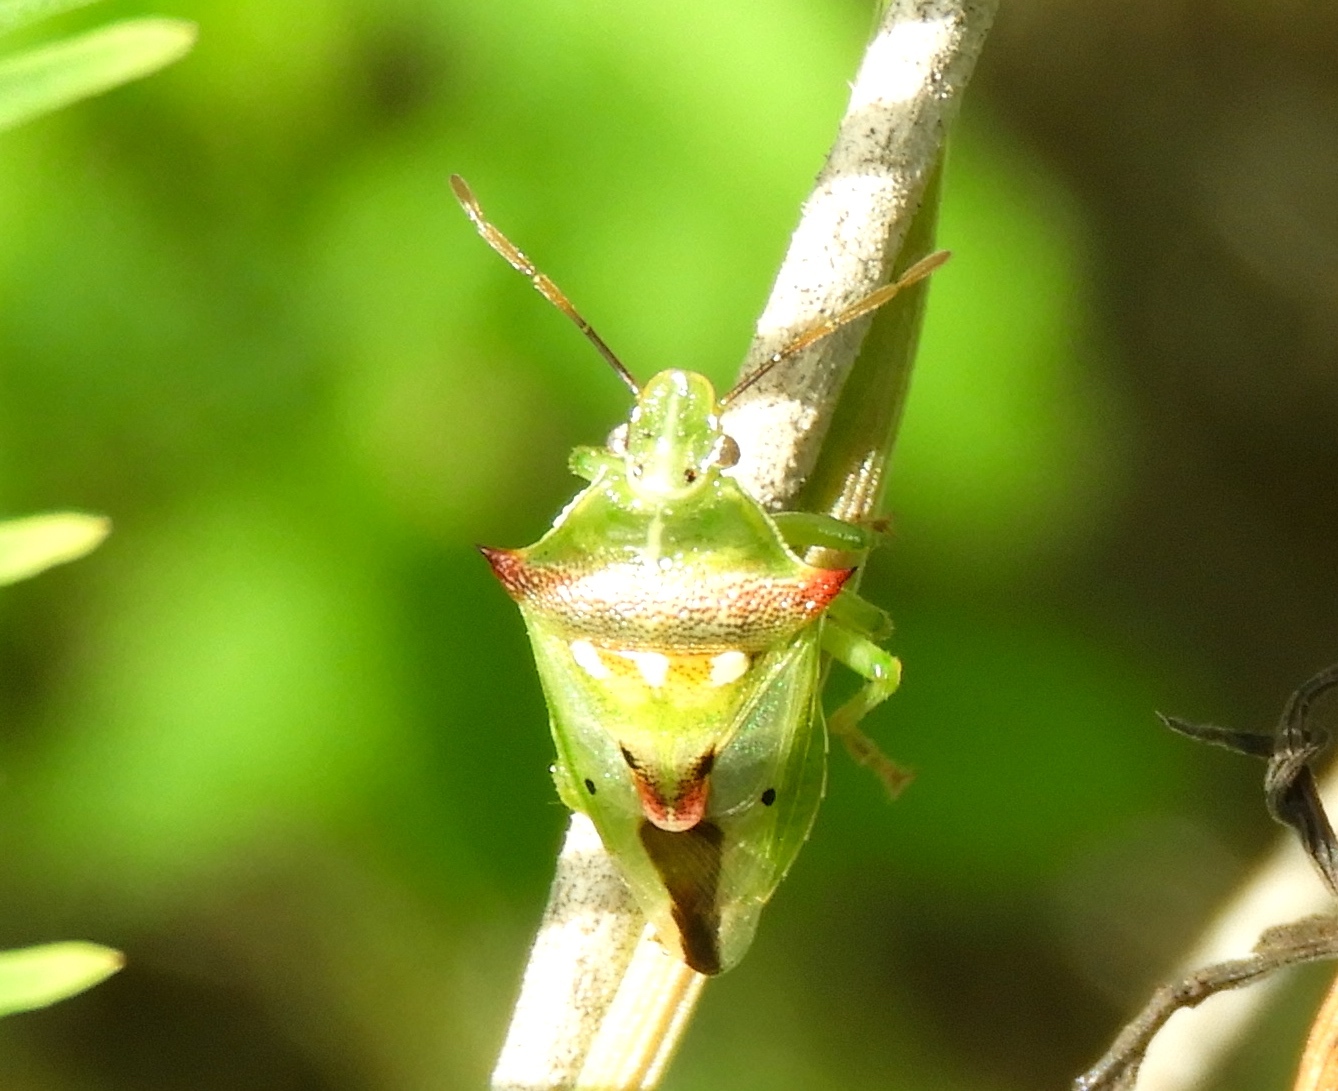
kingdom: Animalia
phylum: Arthropoda
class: Insecta
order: Hemiptera
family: Pentatomidae
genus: Tylospilus
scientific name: Tylospilus acutissimus
